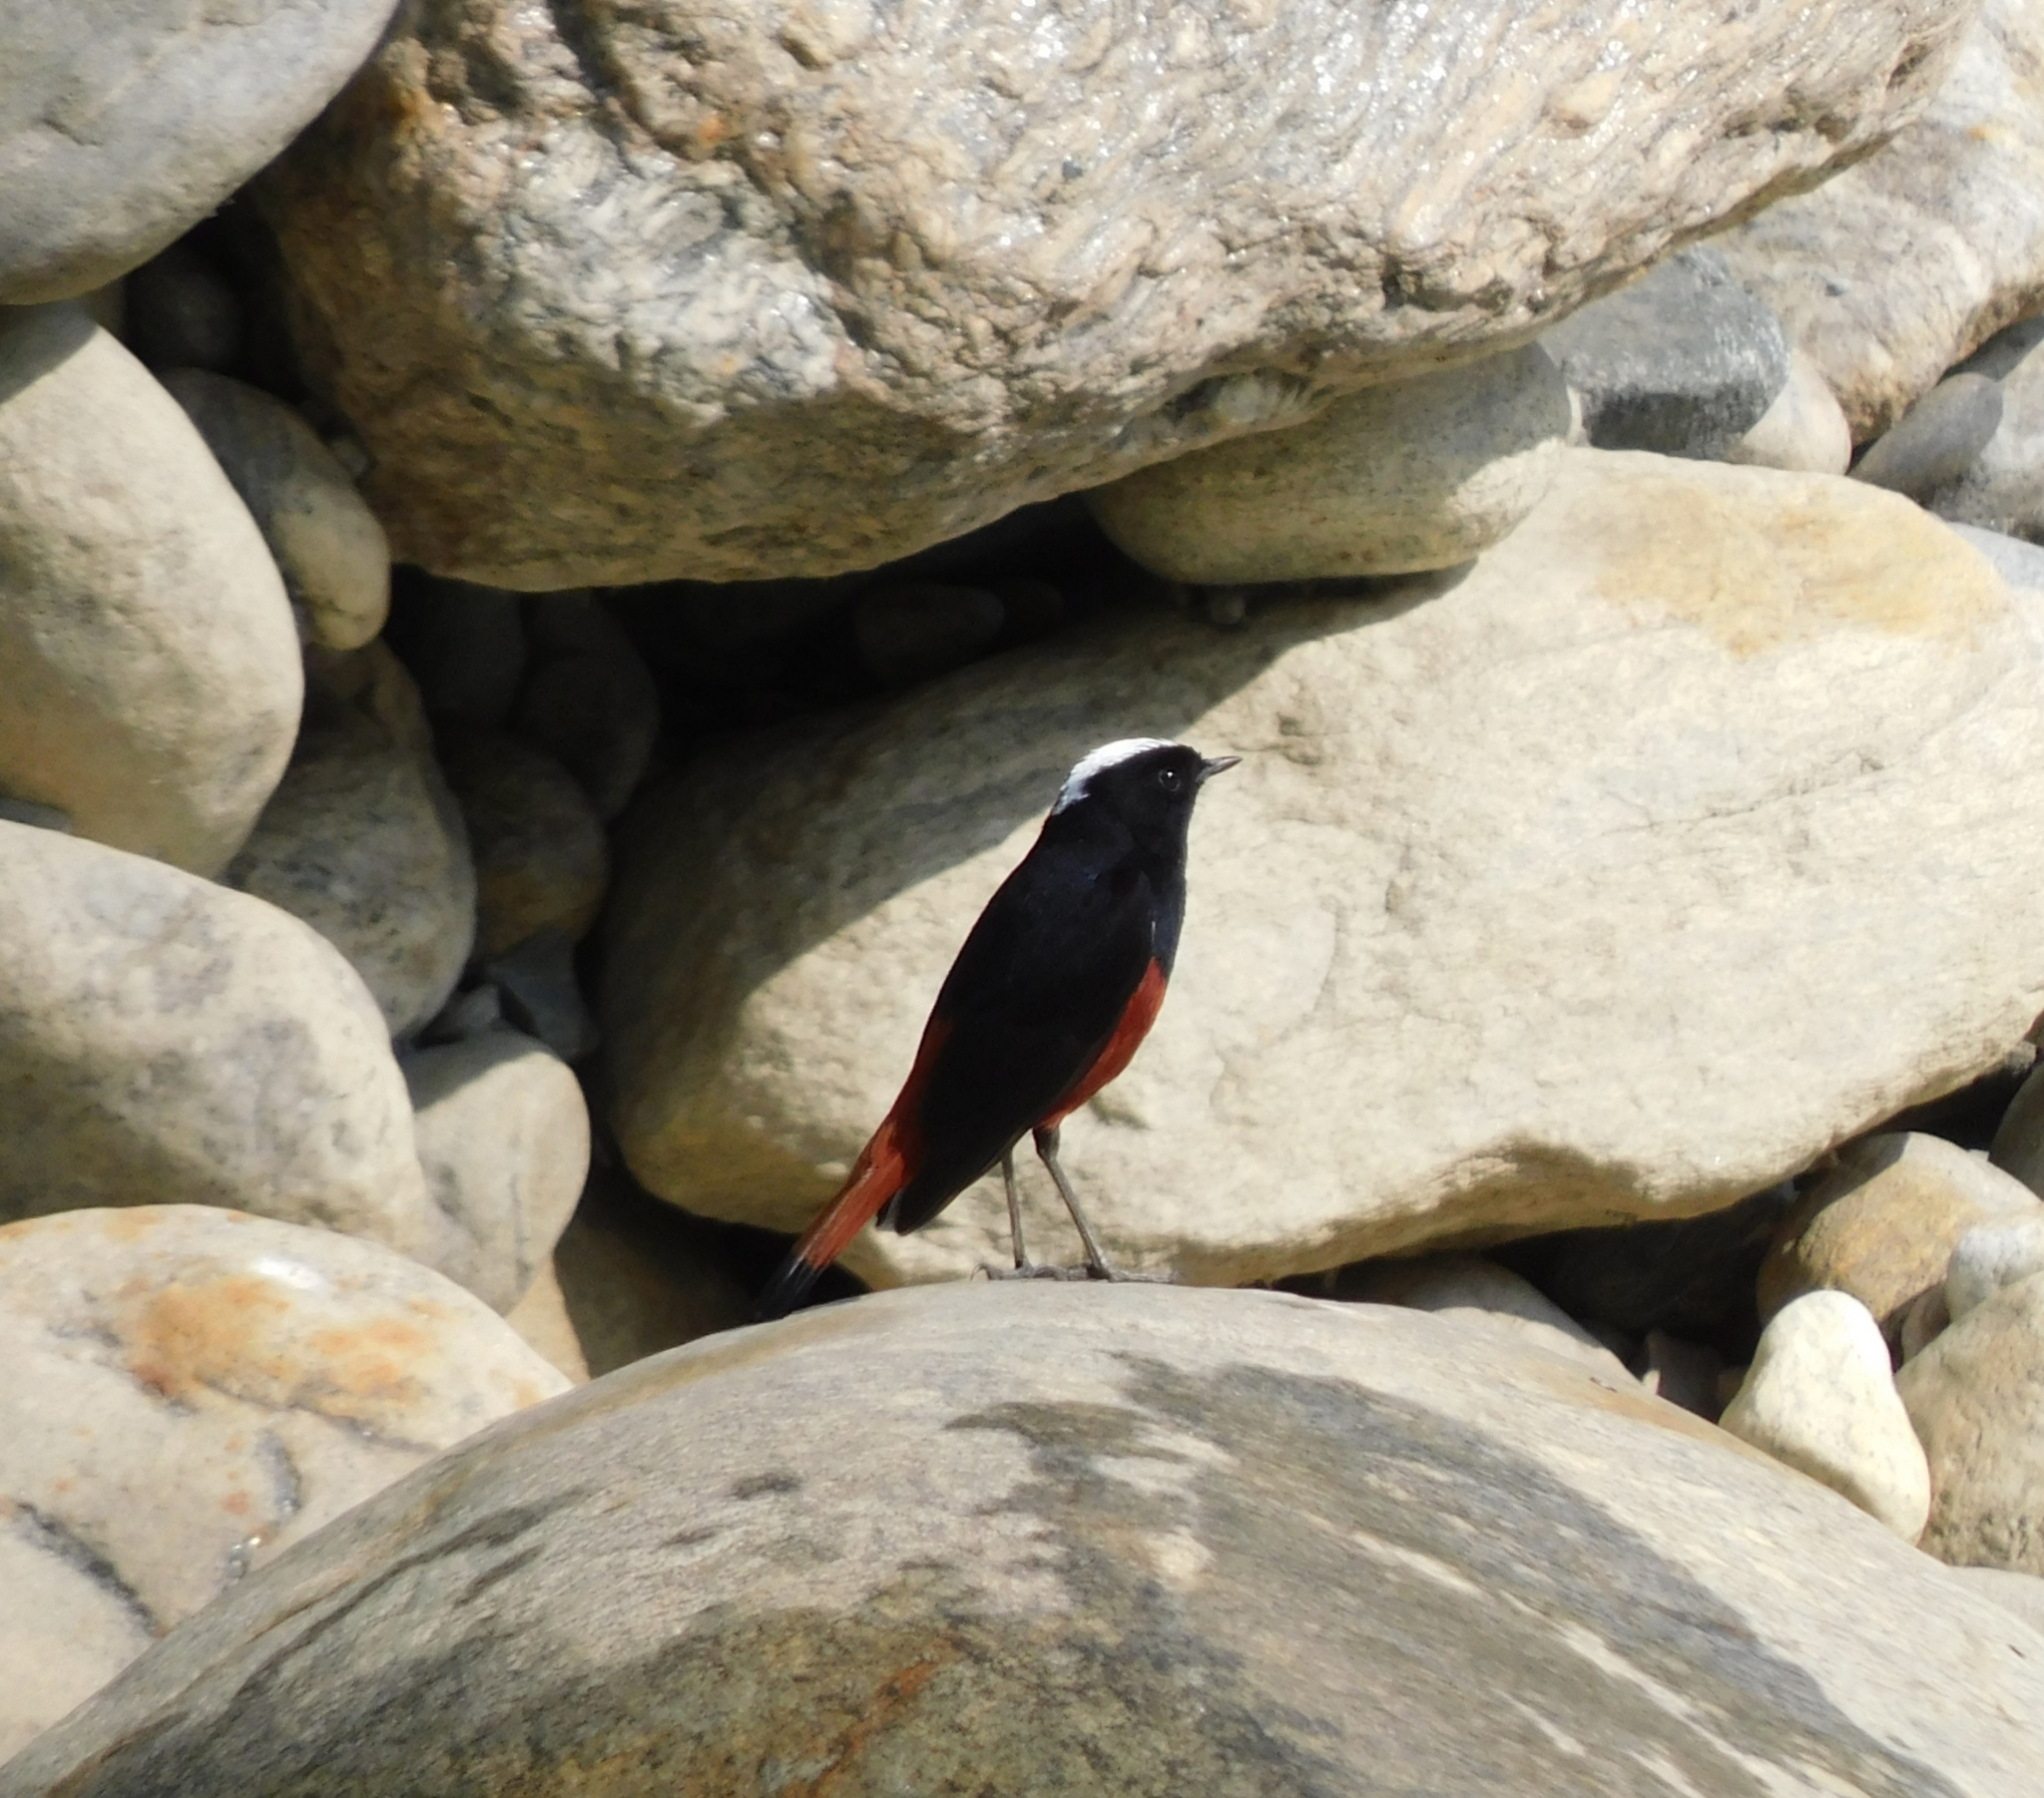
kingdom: Animalia
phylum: Chordata
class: Aves
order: Passeriformes
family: Muscicapidae
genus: Chaimarrornis
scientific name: Chaimarrornis leucocephalus
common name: White-capped redstart
